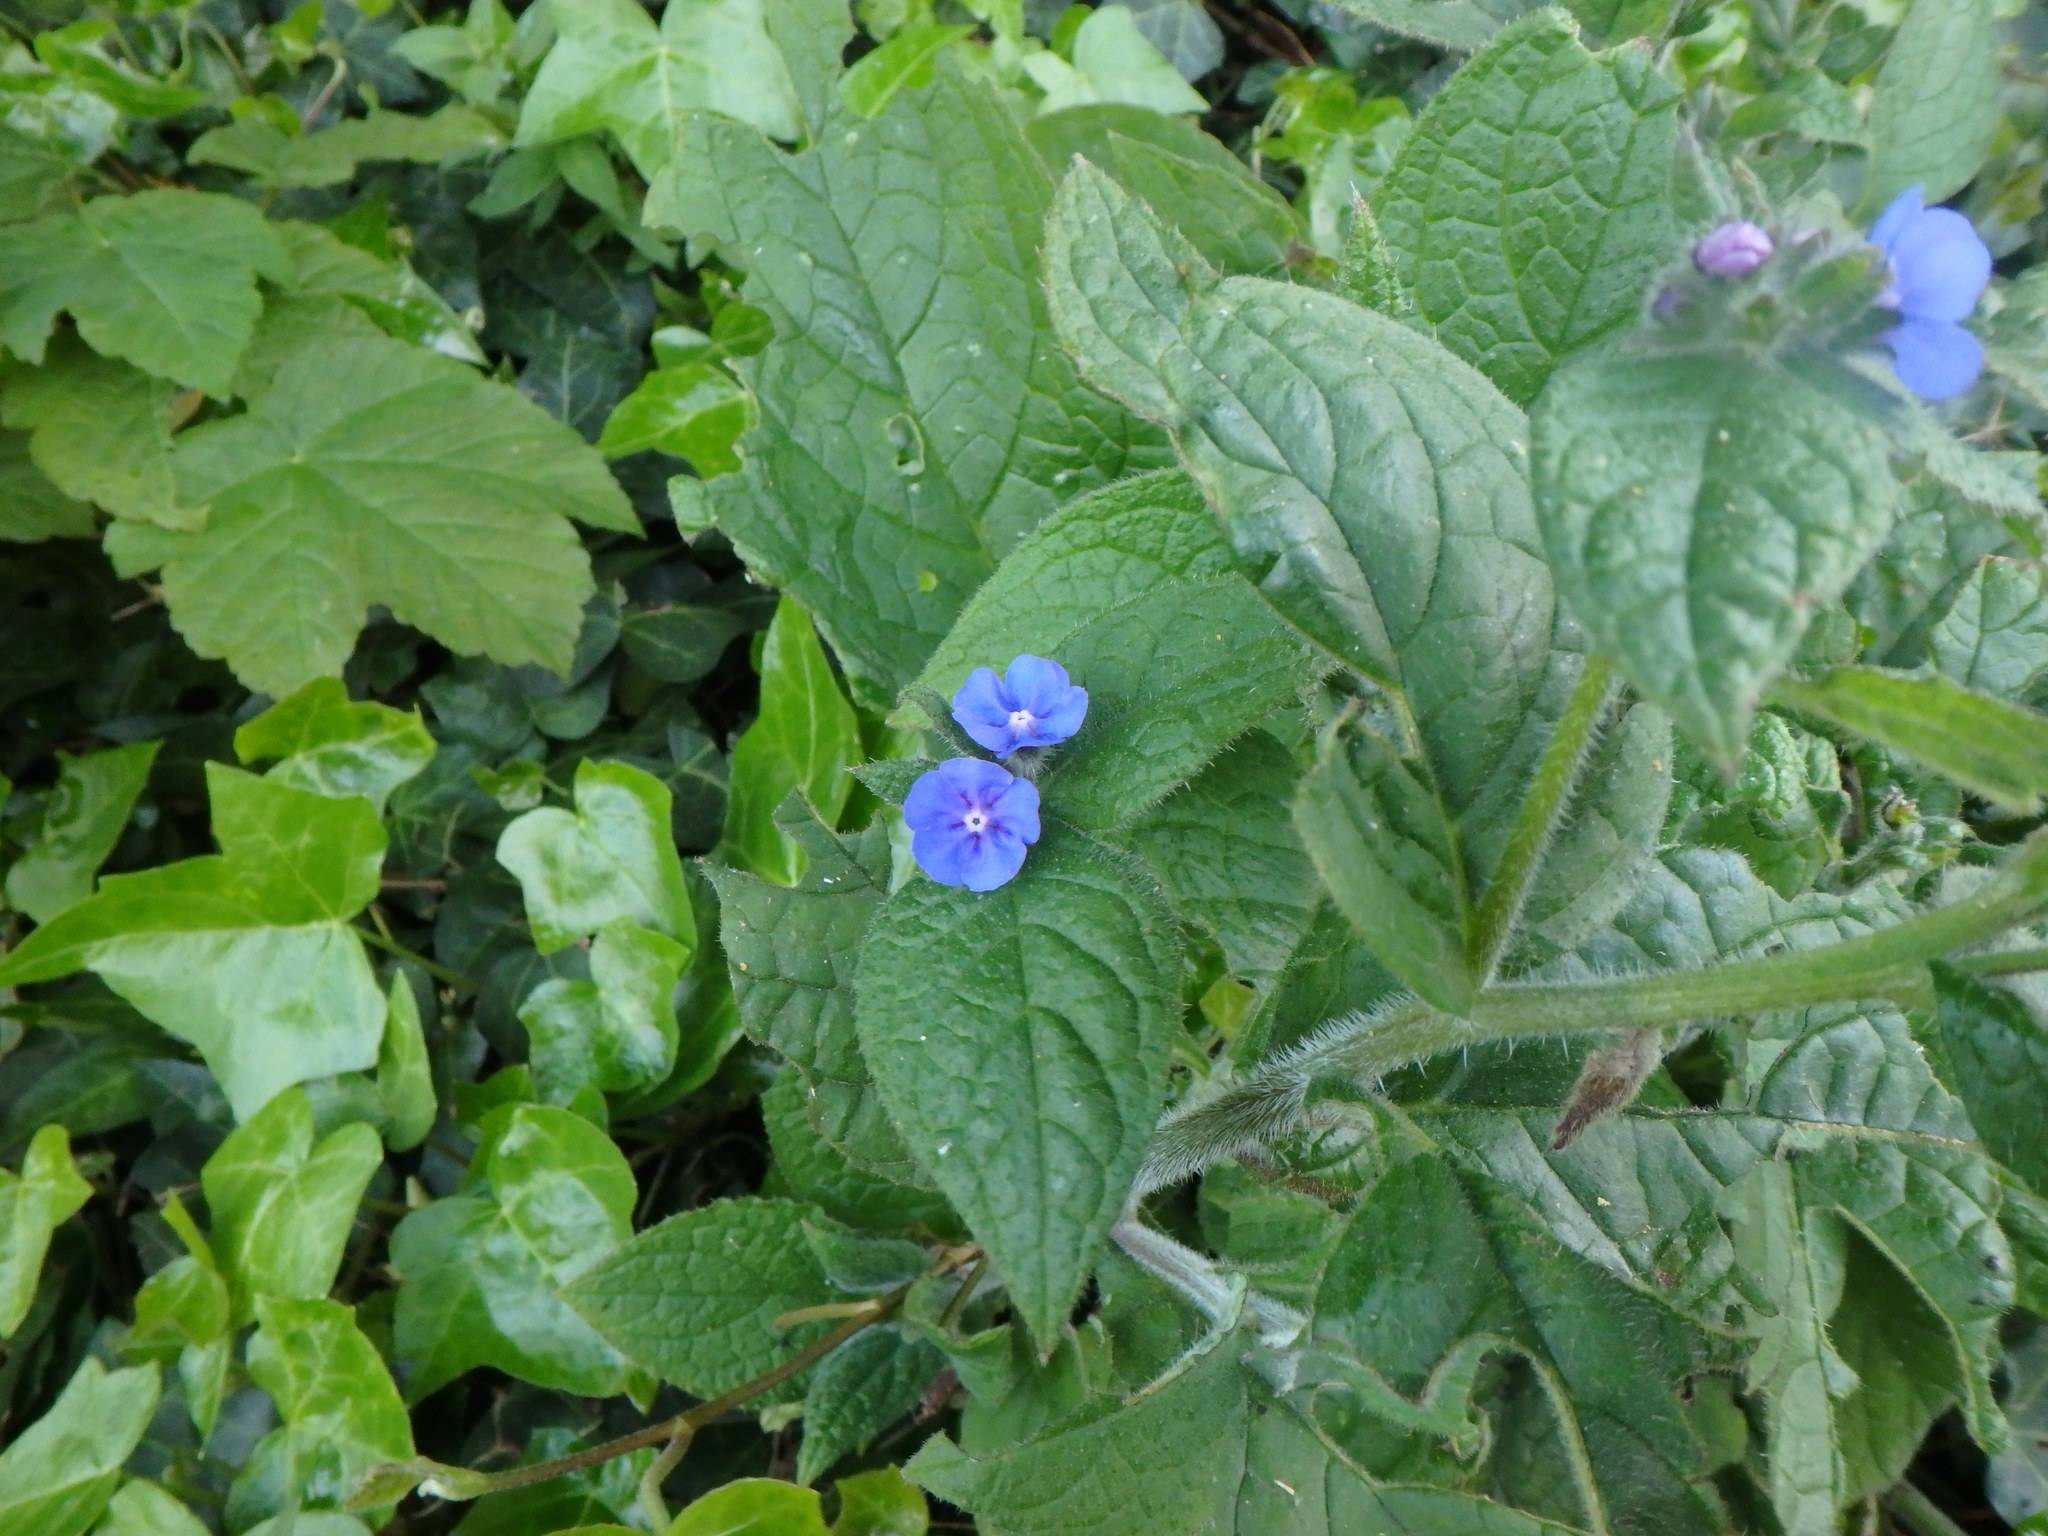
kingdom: Plantae
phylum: Tracheophyta
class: Magnoliopsida
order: Boraginales
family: Boraginaceae
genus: Pentaglottis
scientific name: Pentaglottis sempervirens
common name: Green alkanet
